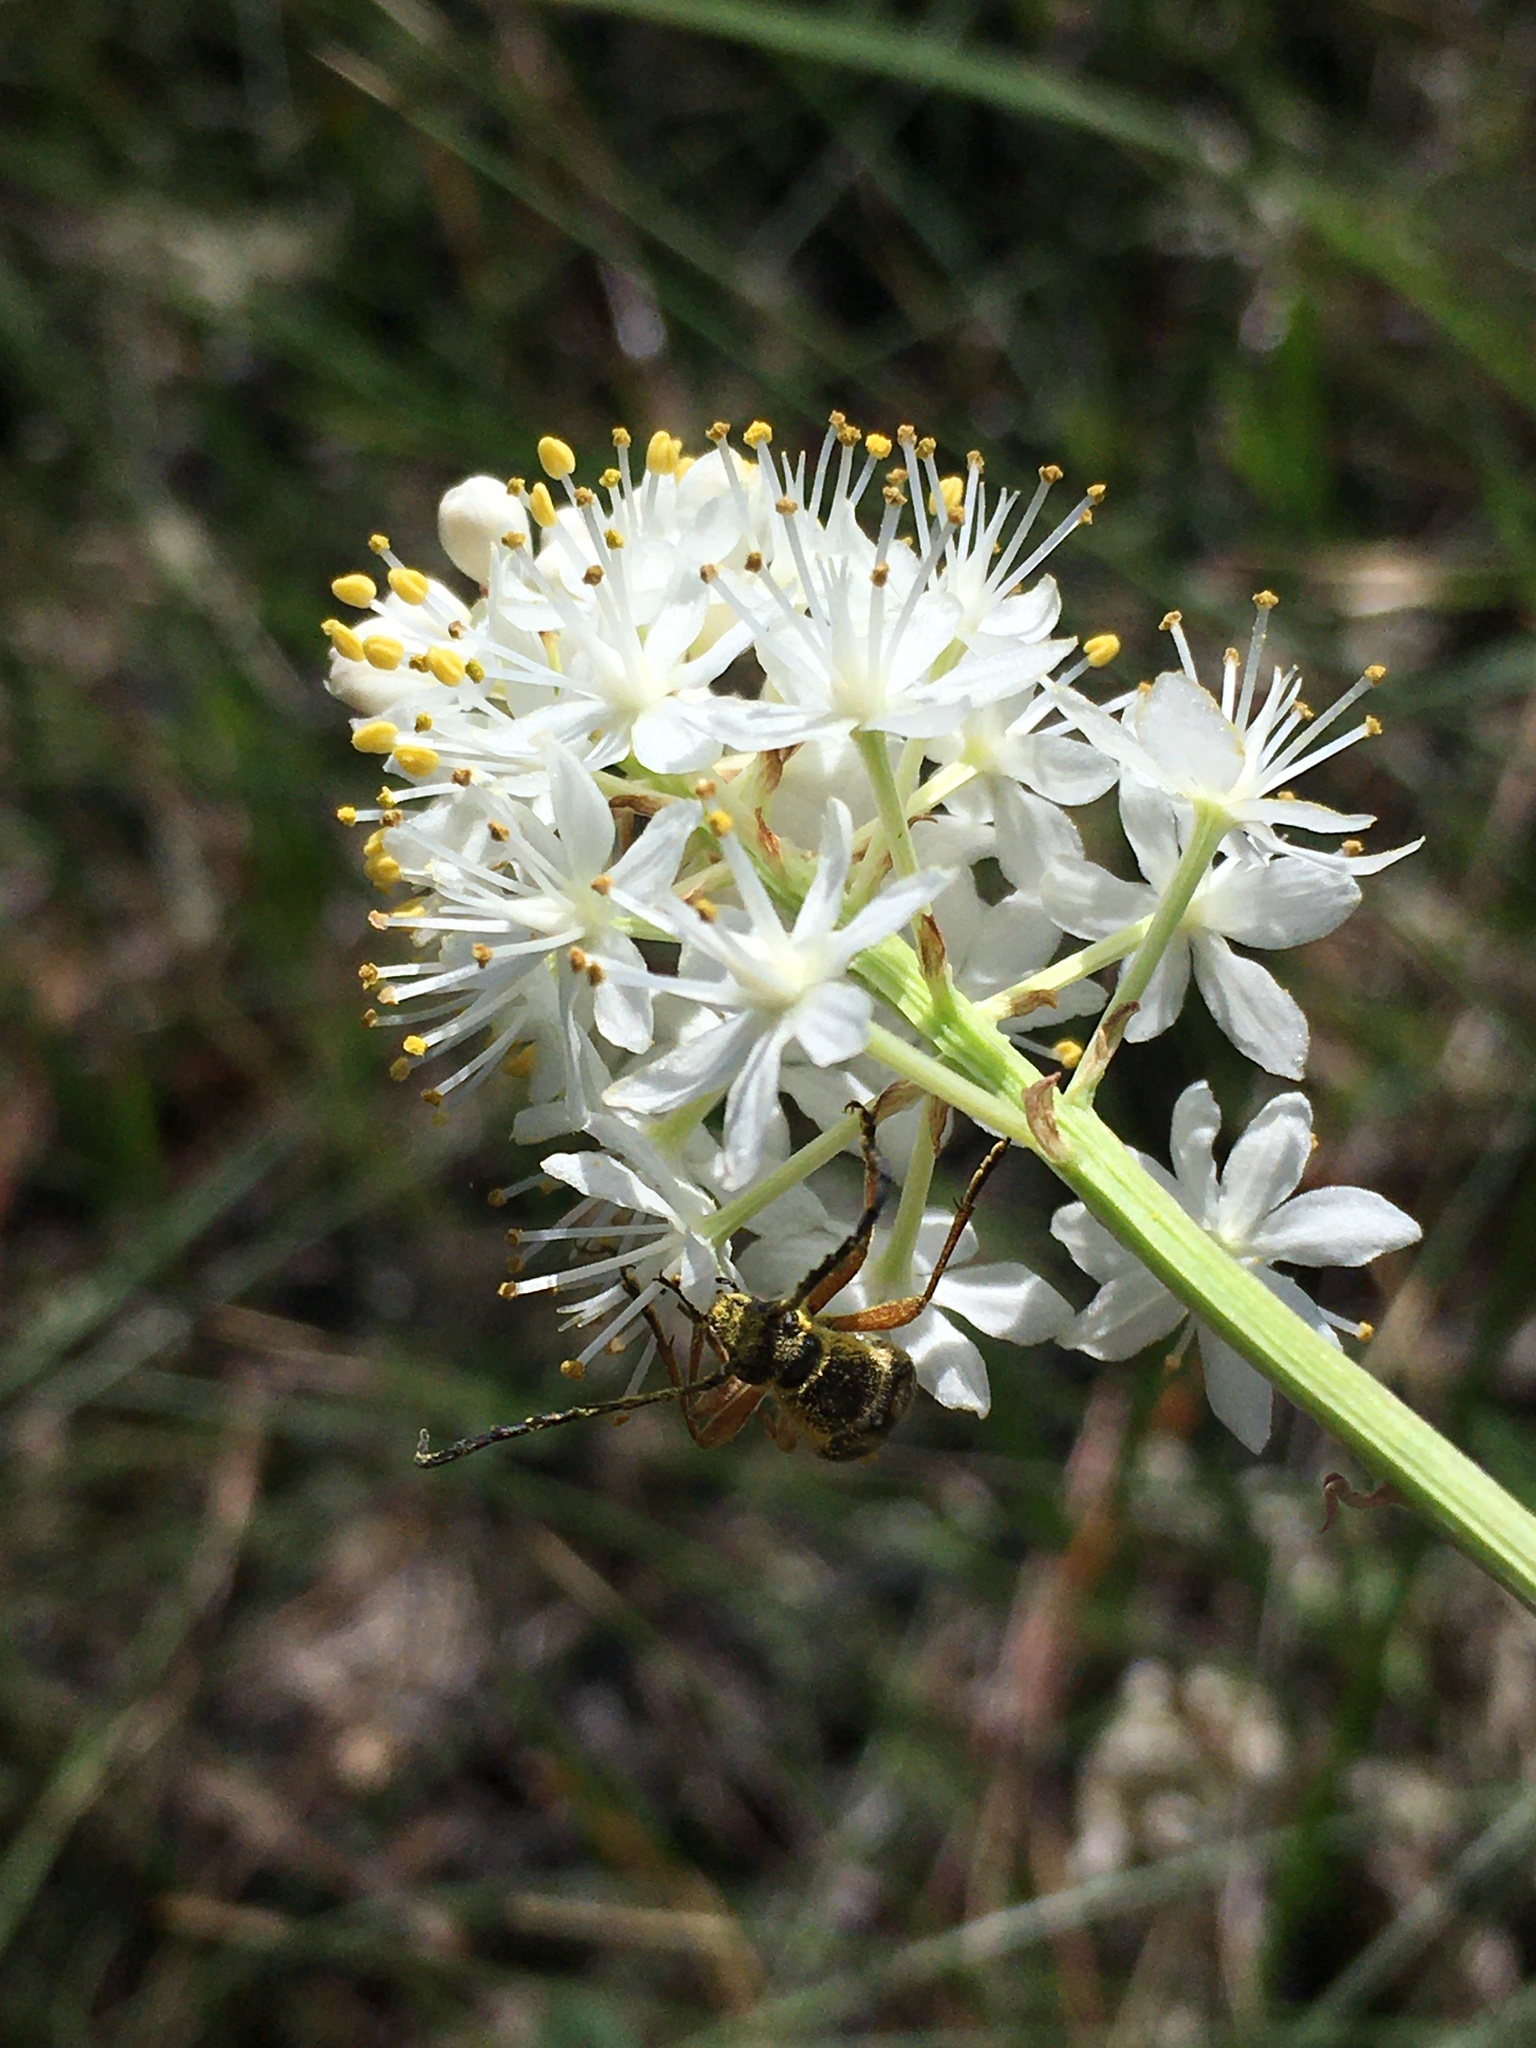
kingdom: Plantae
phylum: Tracheophyta
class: Liliopsida
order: Liliales
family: Melanthiaceae
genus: Stenanthium
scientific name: Stenanthium densum
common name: Crow-poison
